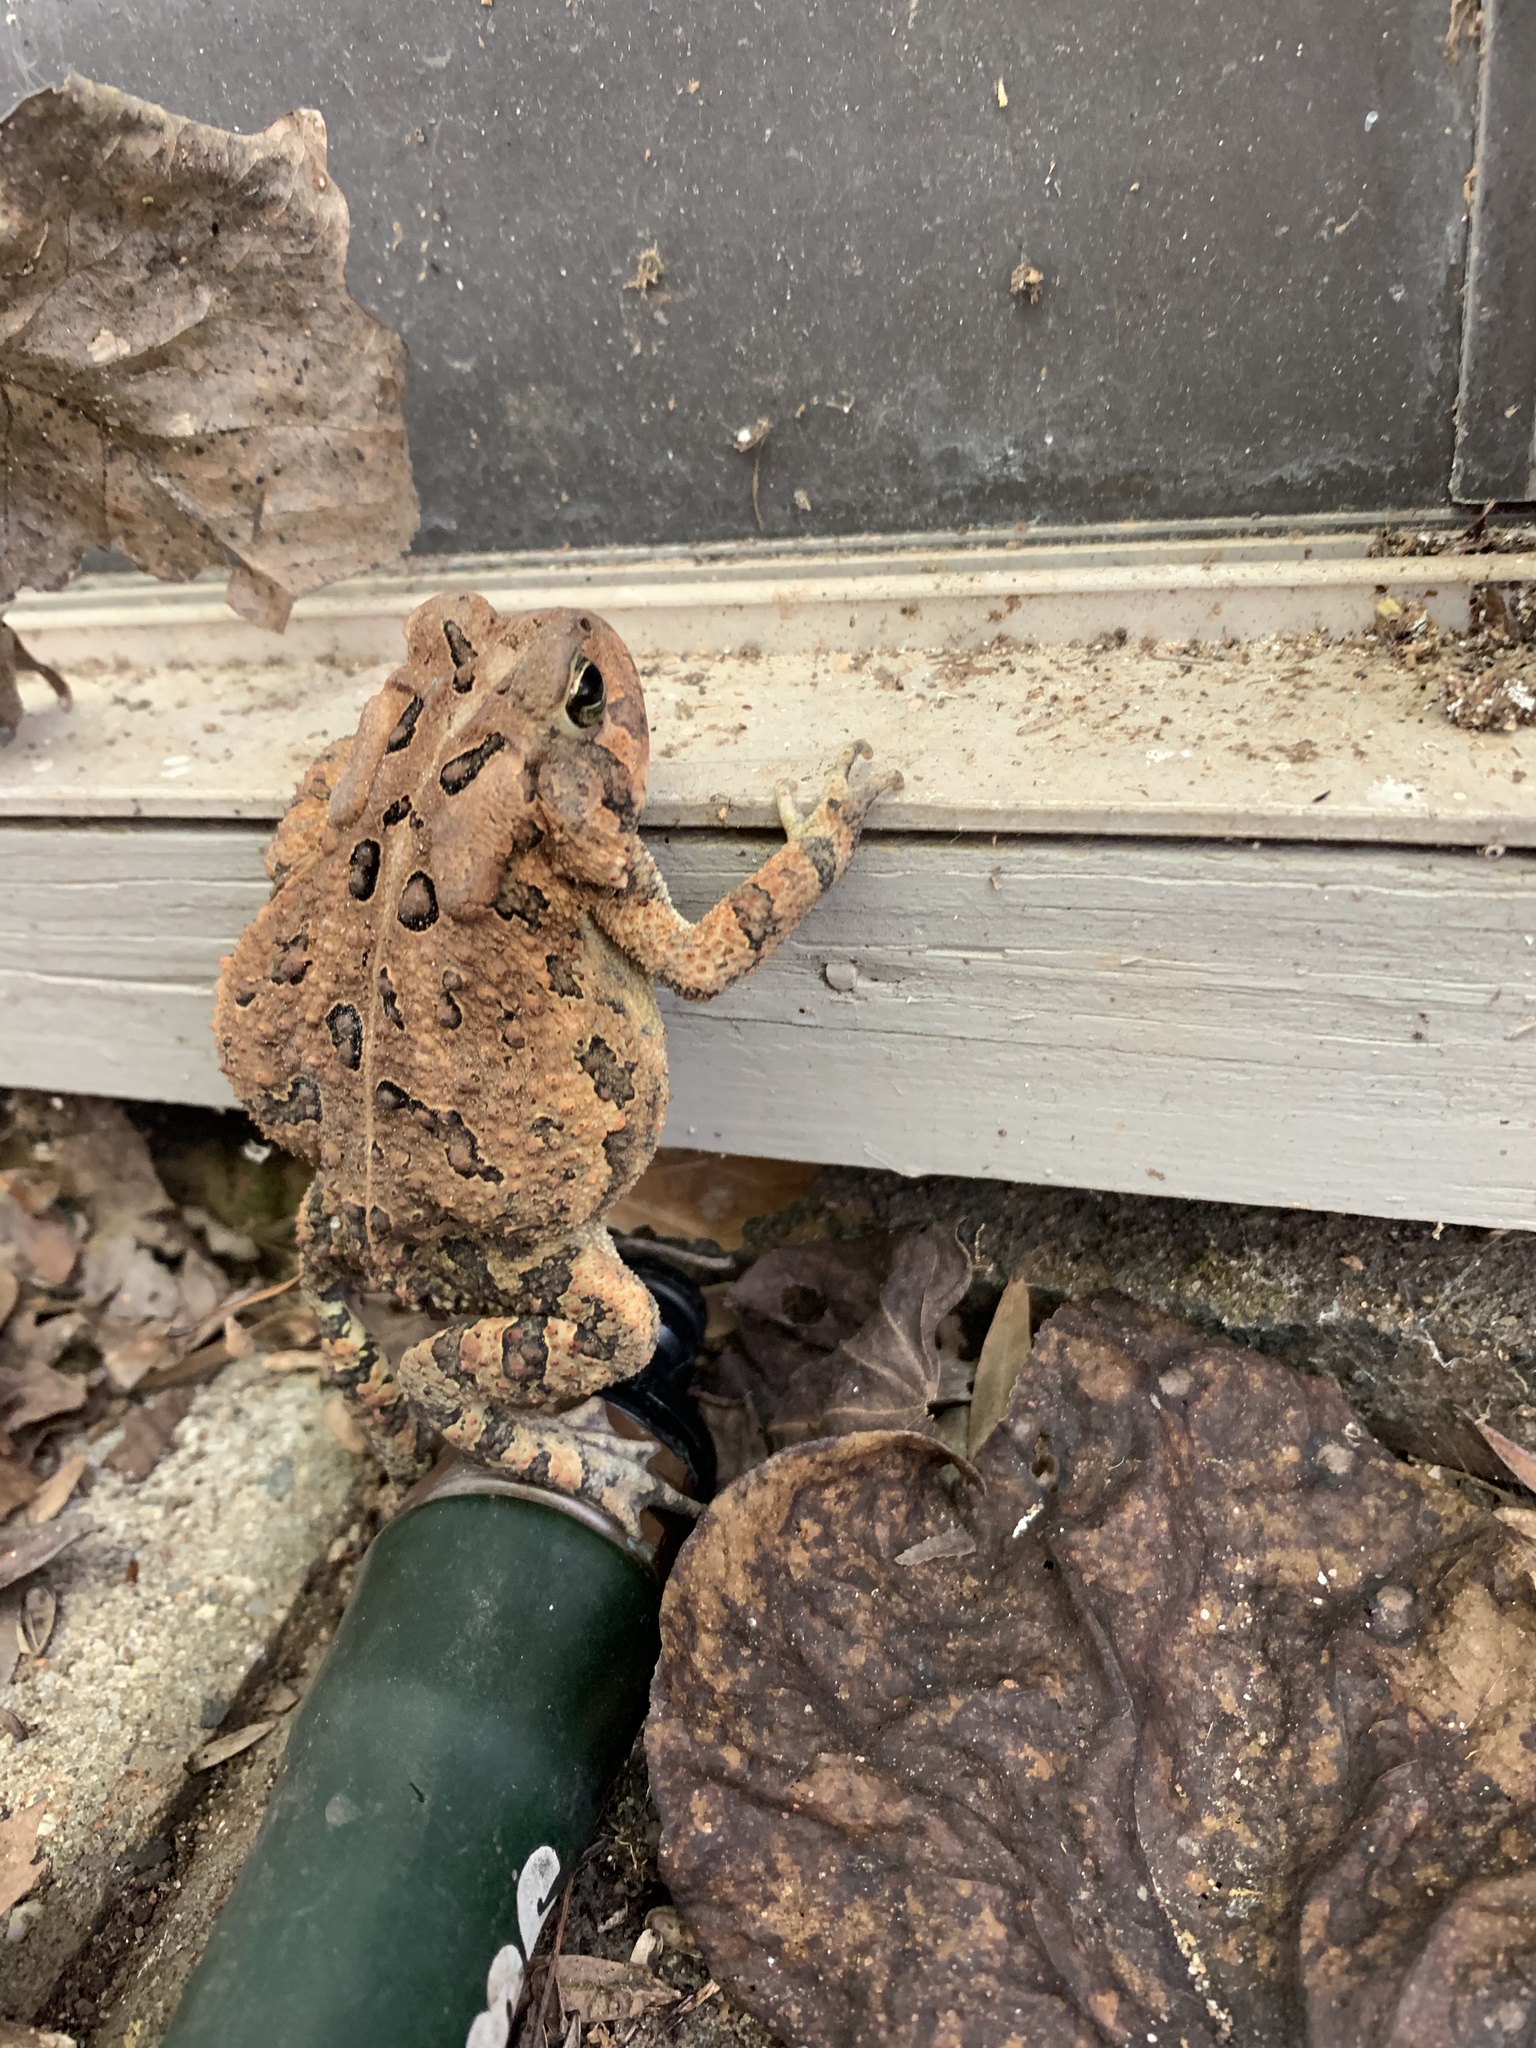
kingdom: Animalia
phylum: Chordata
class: Amphibia
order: Anura
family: Bufonidae
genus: Anaxyrus
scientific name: Anaxyrus fowleri
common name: Fowler's toad
